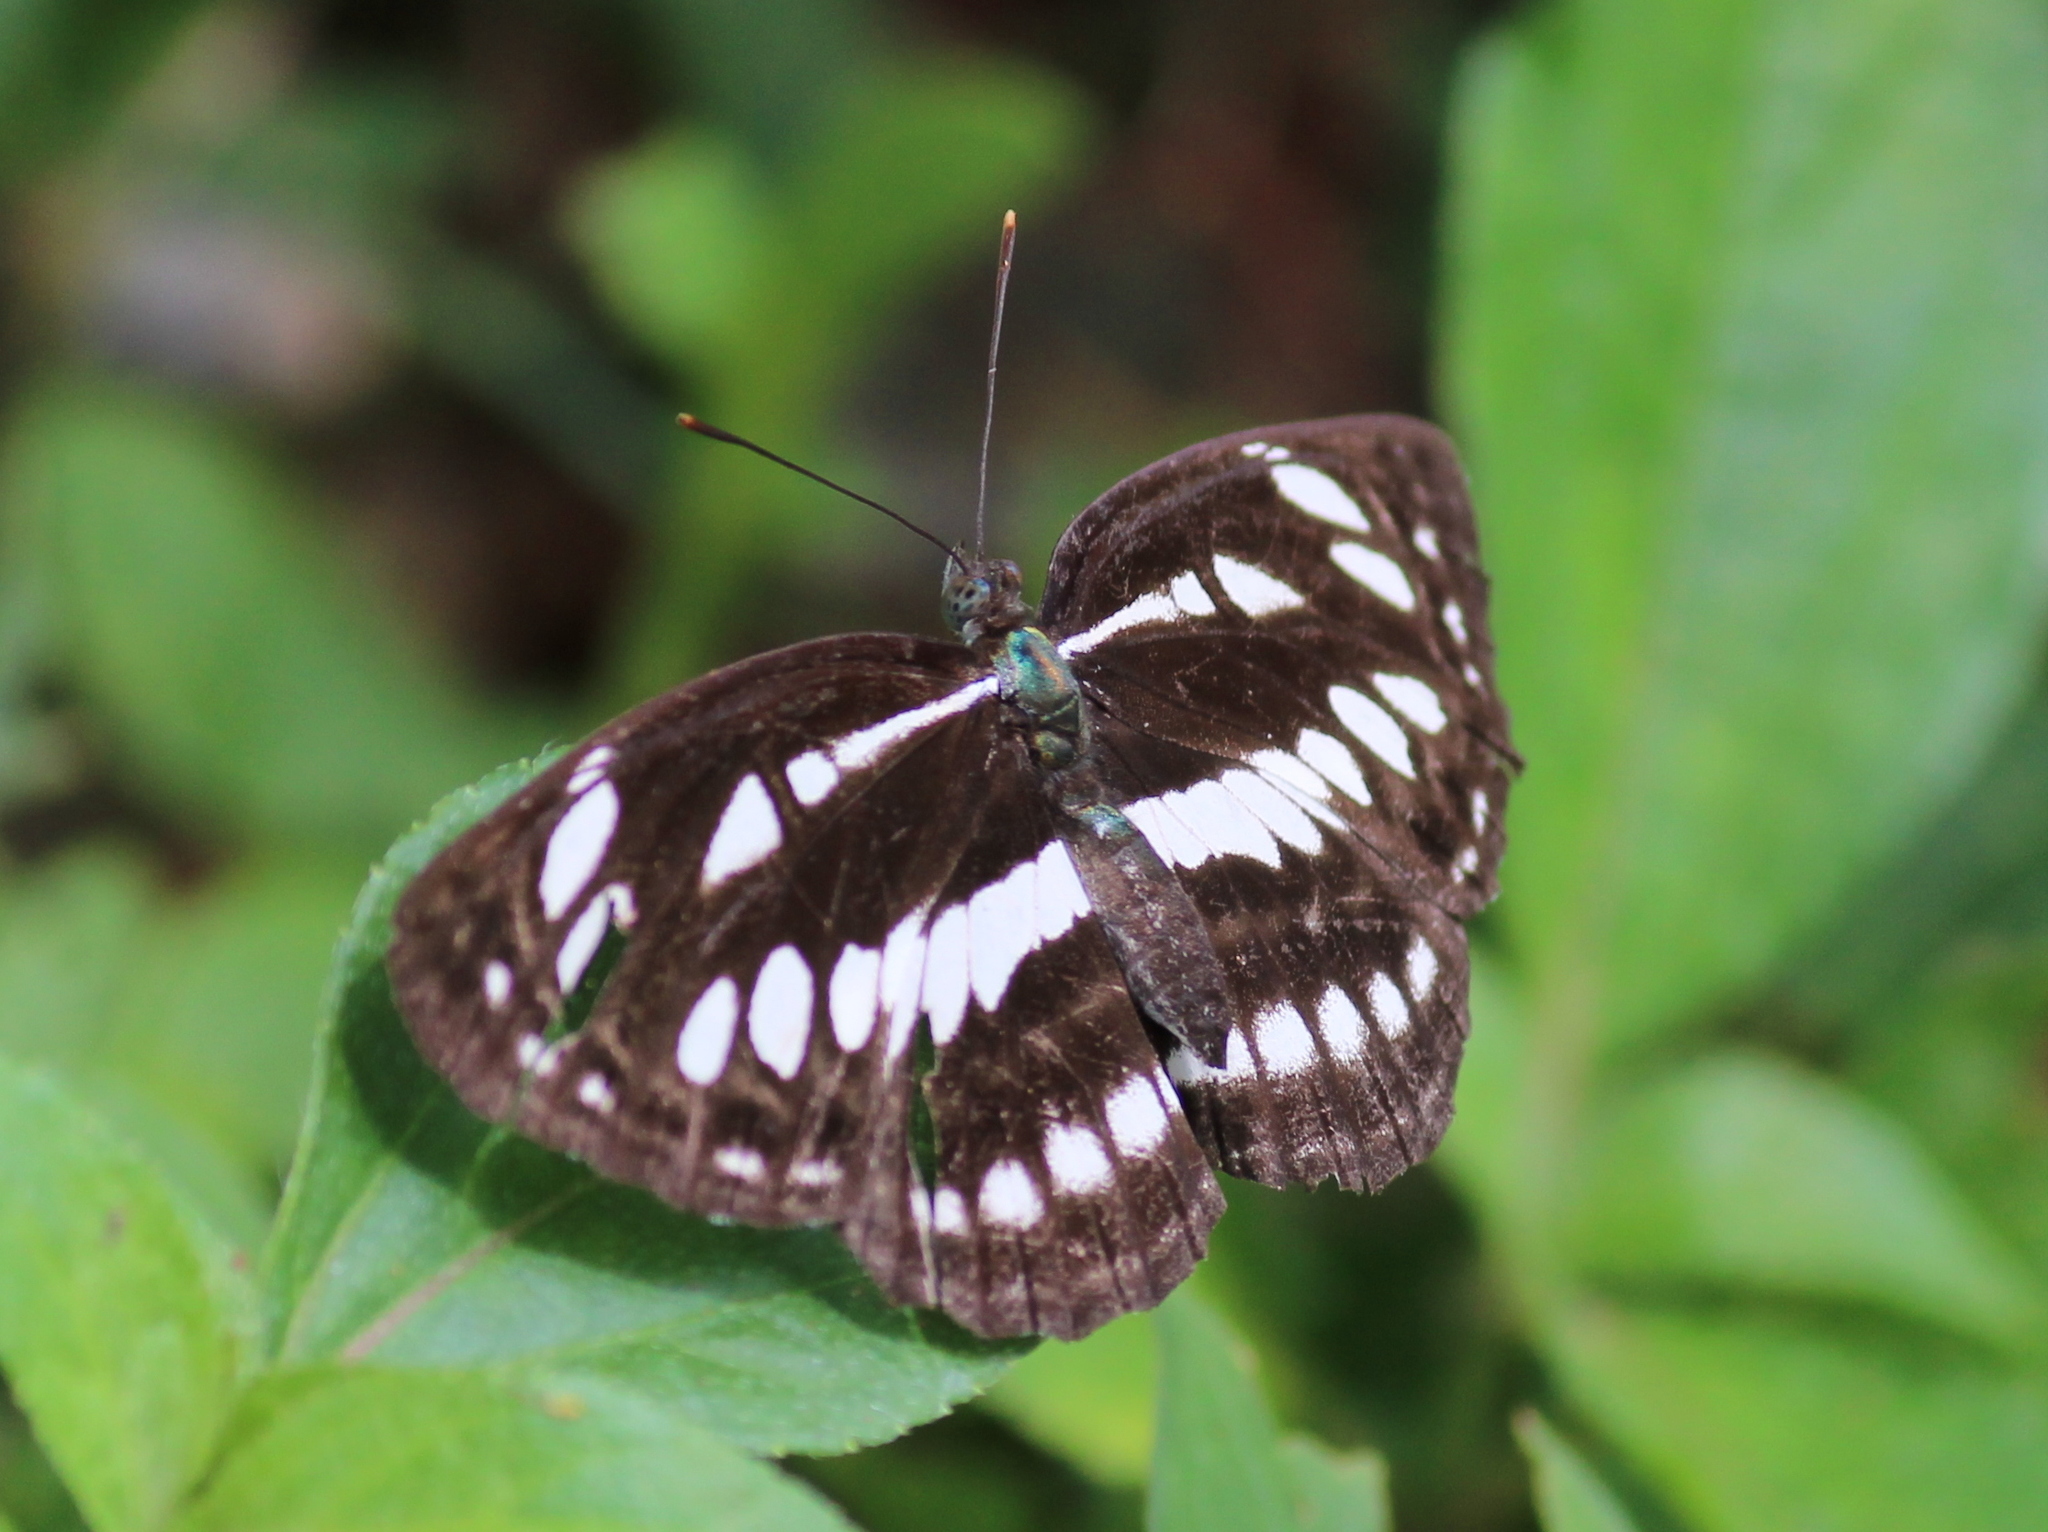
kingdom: Animalia
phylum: Arthropoda
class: Insecta
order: Lepidoptera
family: Nymphalidae
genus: Neptis
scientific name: Neptis hylas
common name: Common sailer
